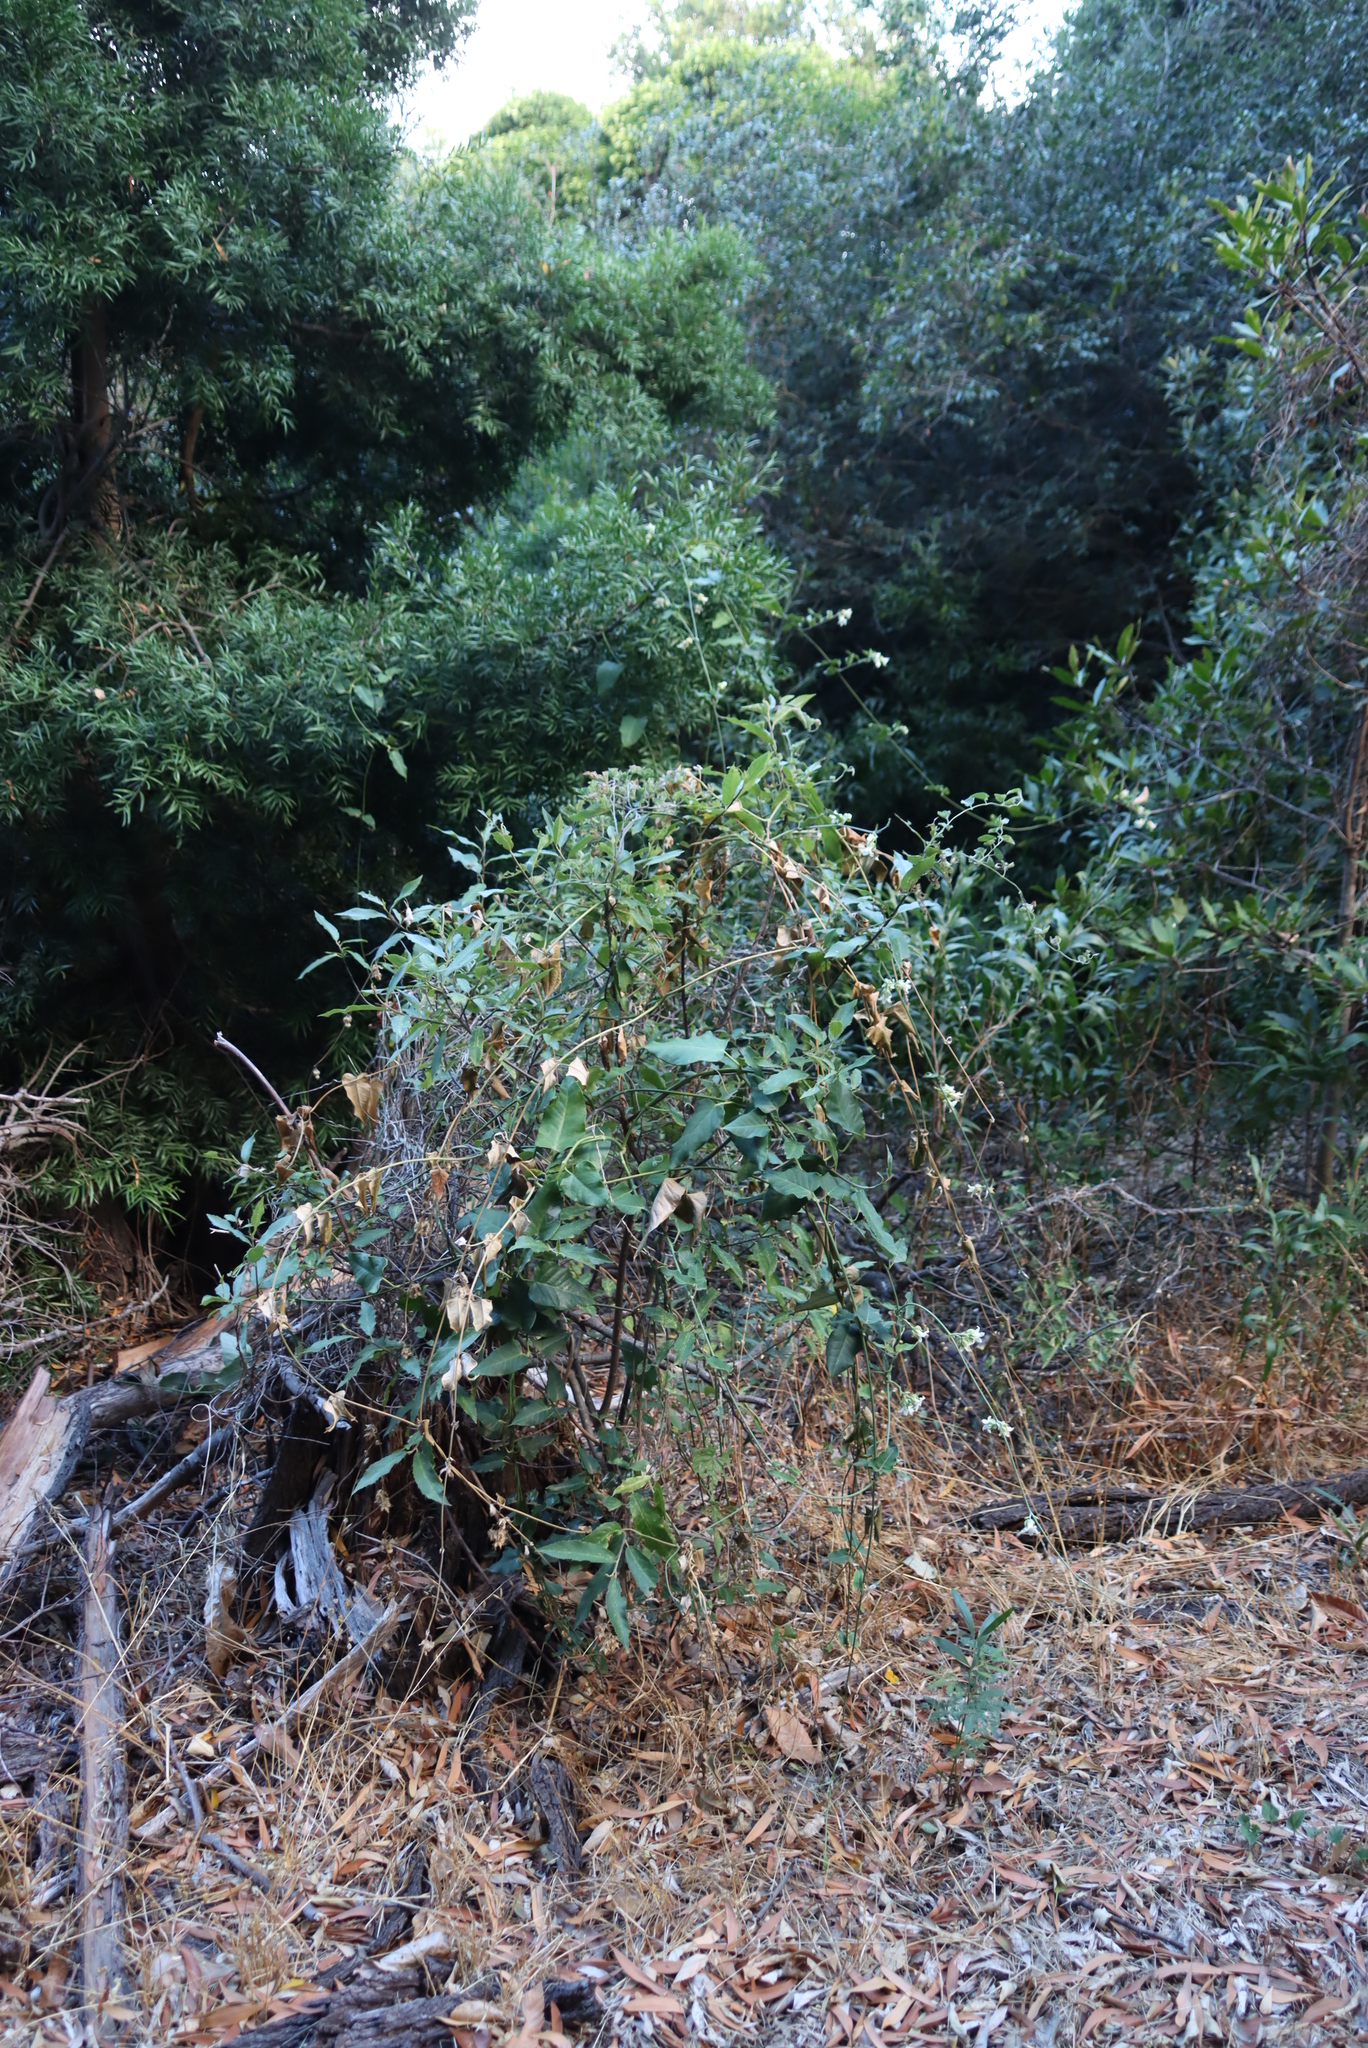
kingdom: Plantae
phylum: Tracheophyta
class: Magnoliopsida
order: Gentianales
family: Apocynaceae
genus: Araujia
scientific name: Araujia sericifera
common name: White bladderflower
